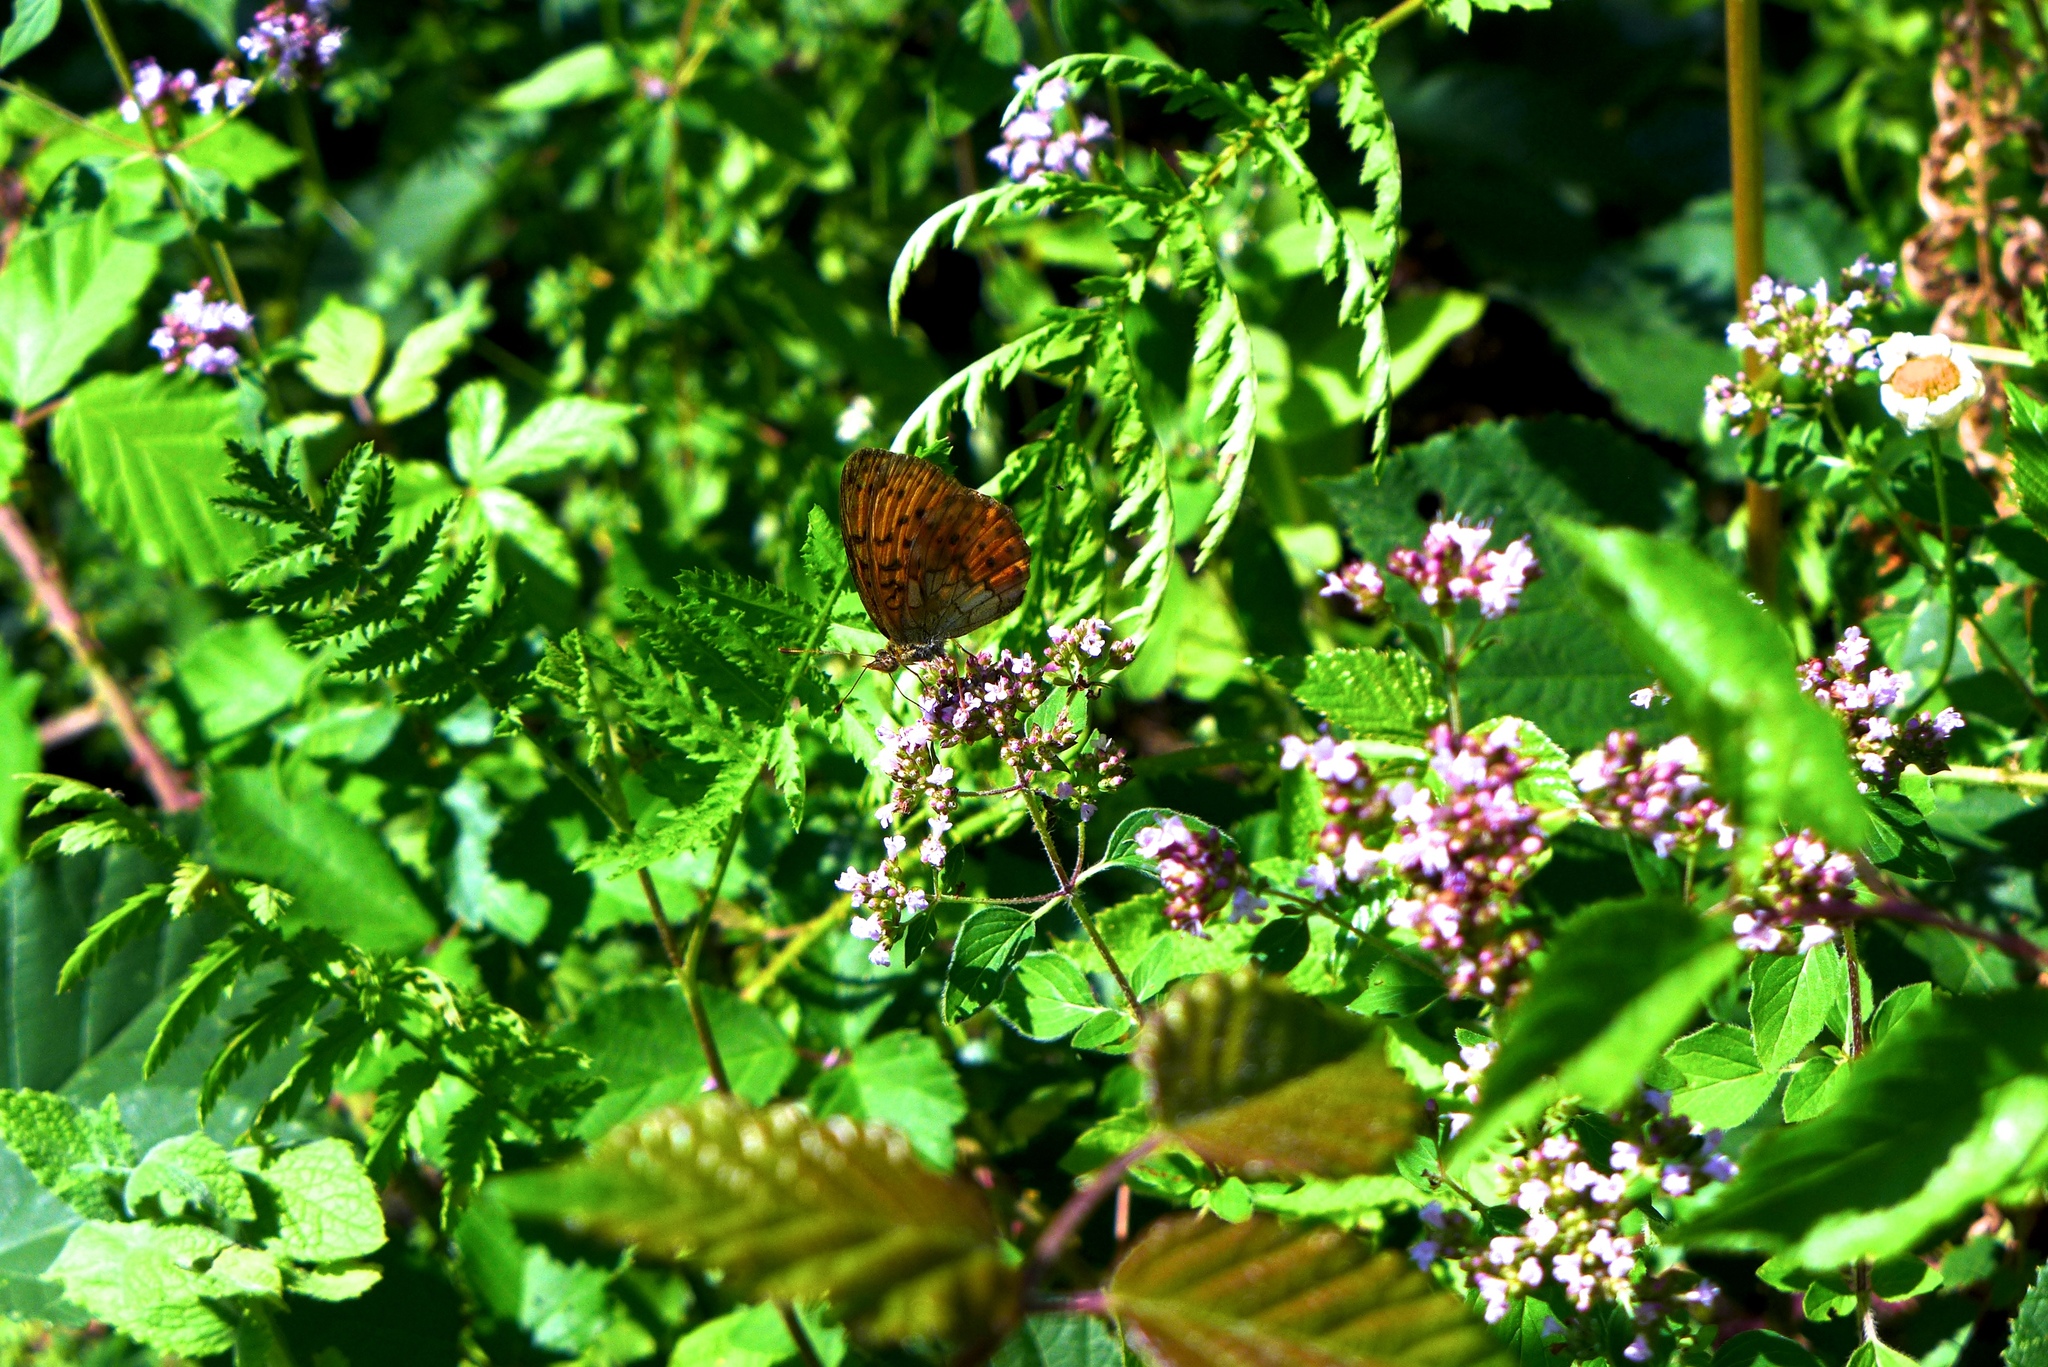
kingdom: Animalia
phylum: Arthropoda
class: Insecta
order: Lepidoptera
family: Nymphalidae
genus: Brenthis
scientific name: Brenthis daphne
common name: Marbled fritillary
